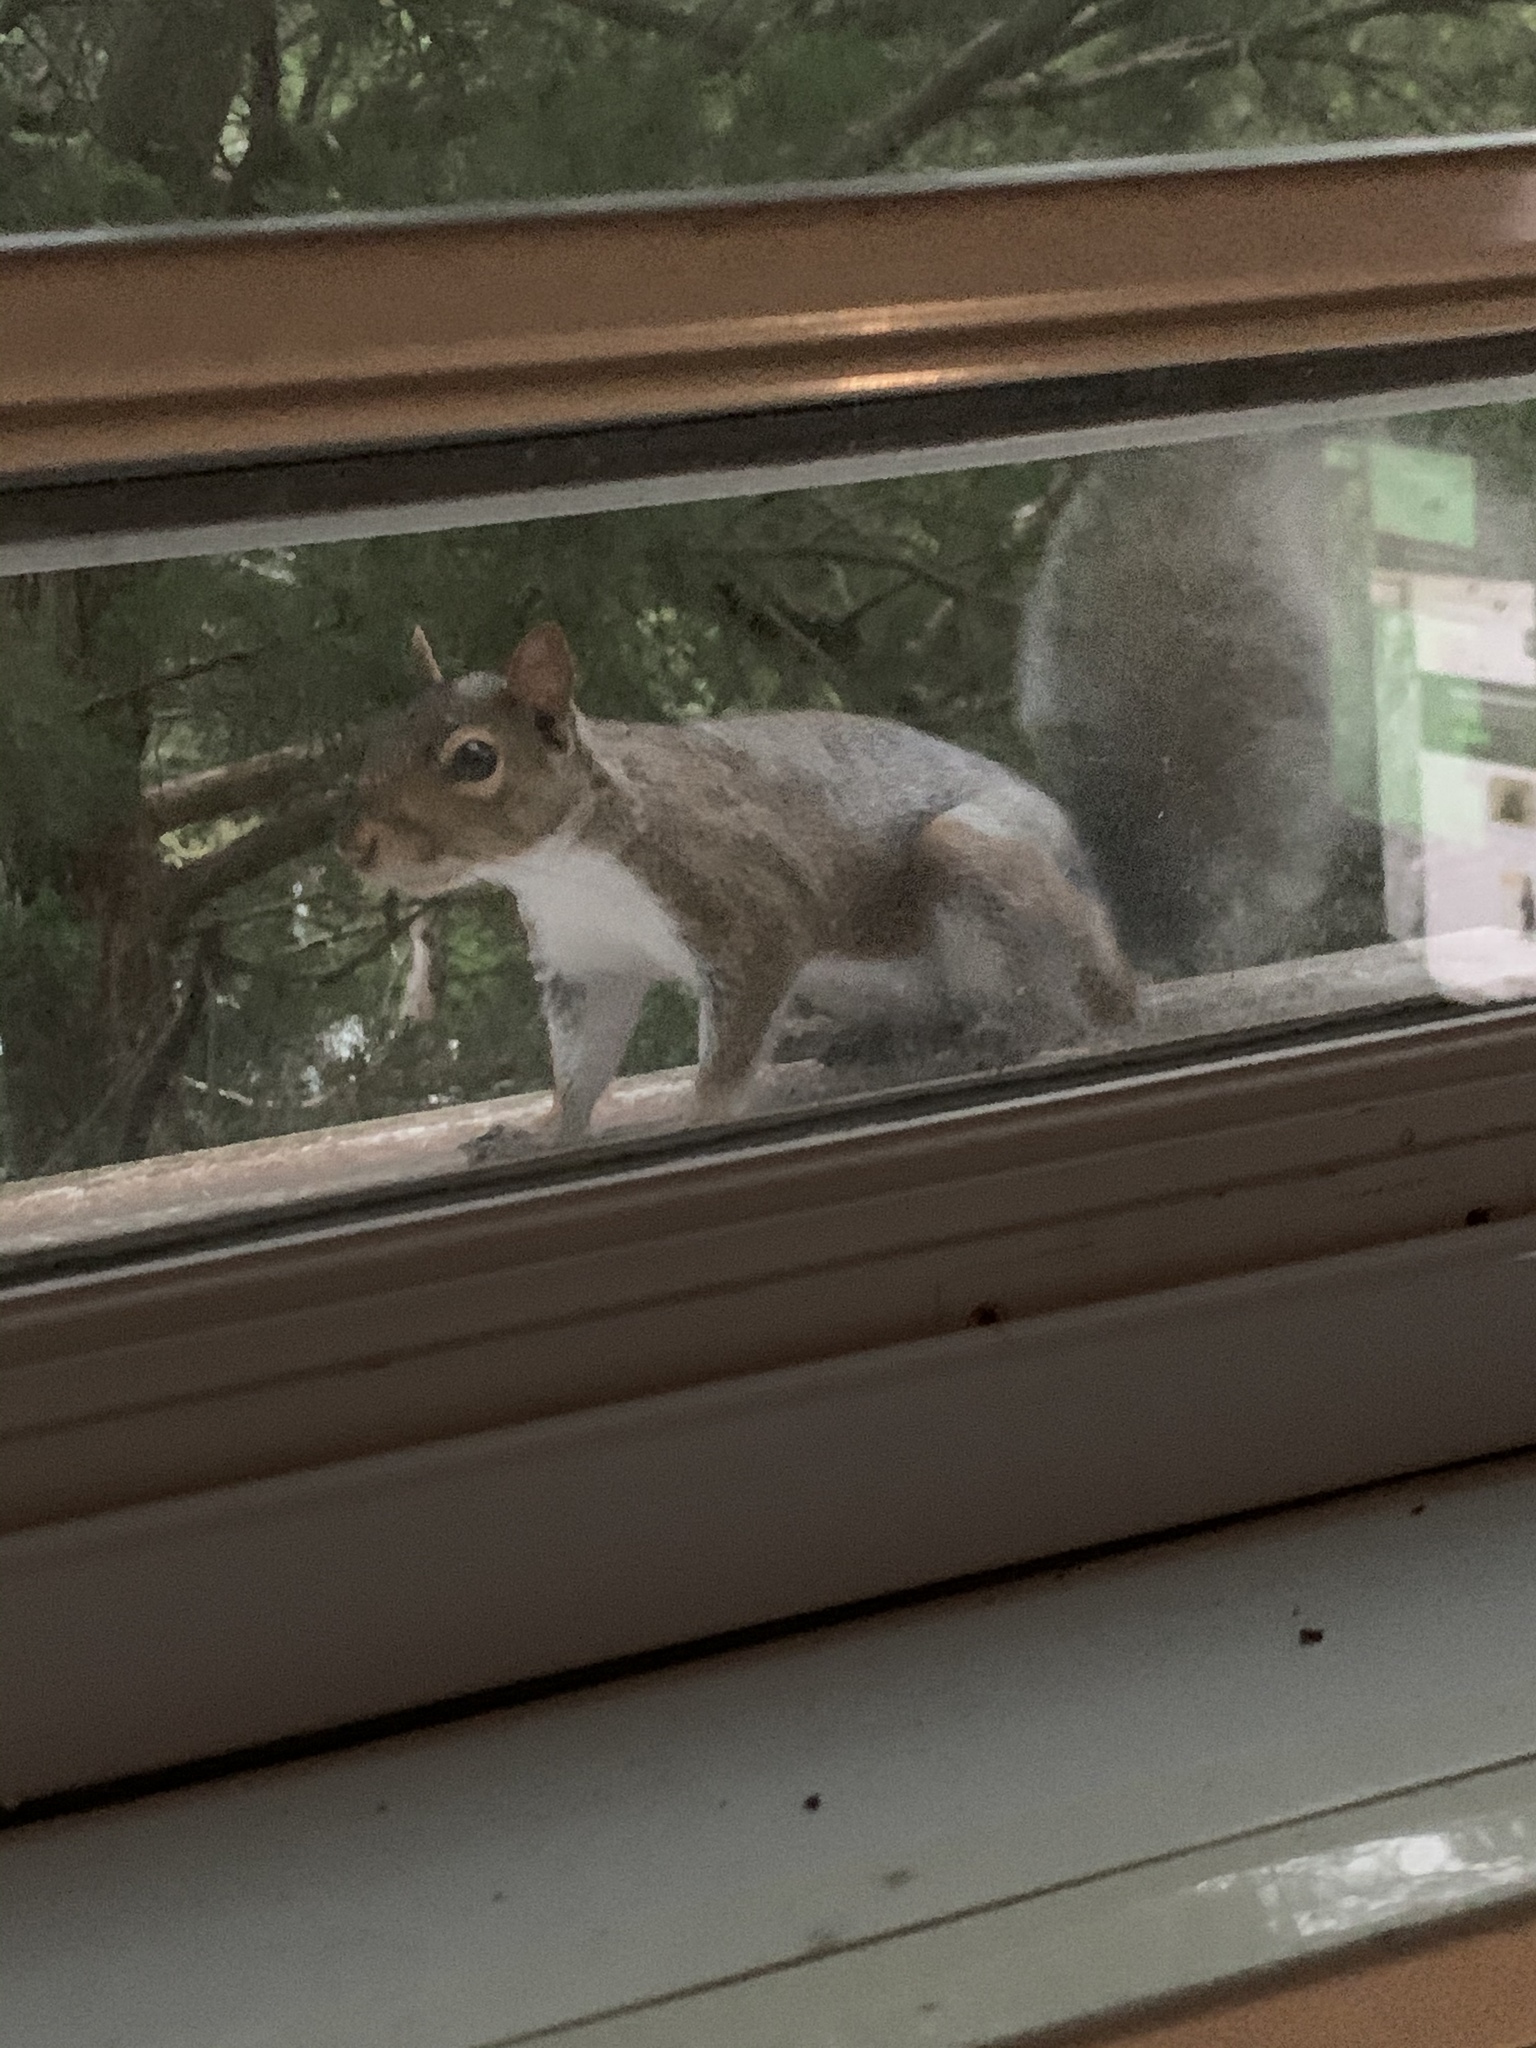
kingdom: Animalia
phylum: Chordata
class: Mammalia
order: Rodentia
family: Sciuridae
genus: Sciurus
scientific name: Sciurus carolinensis
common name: Eastern gray squirrel
